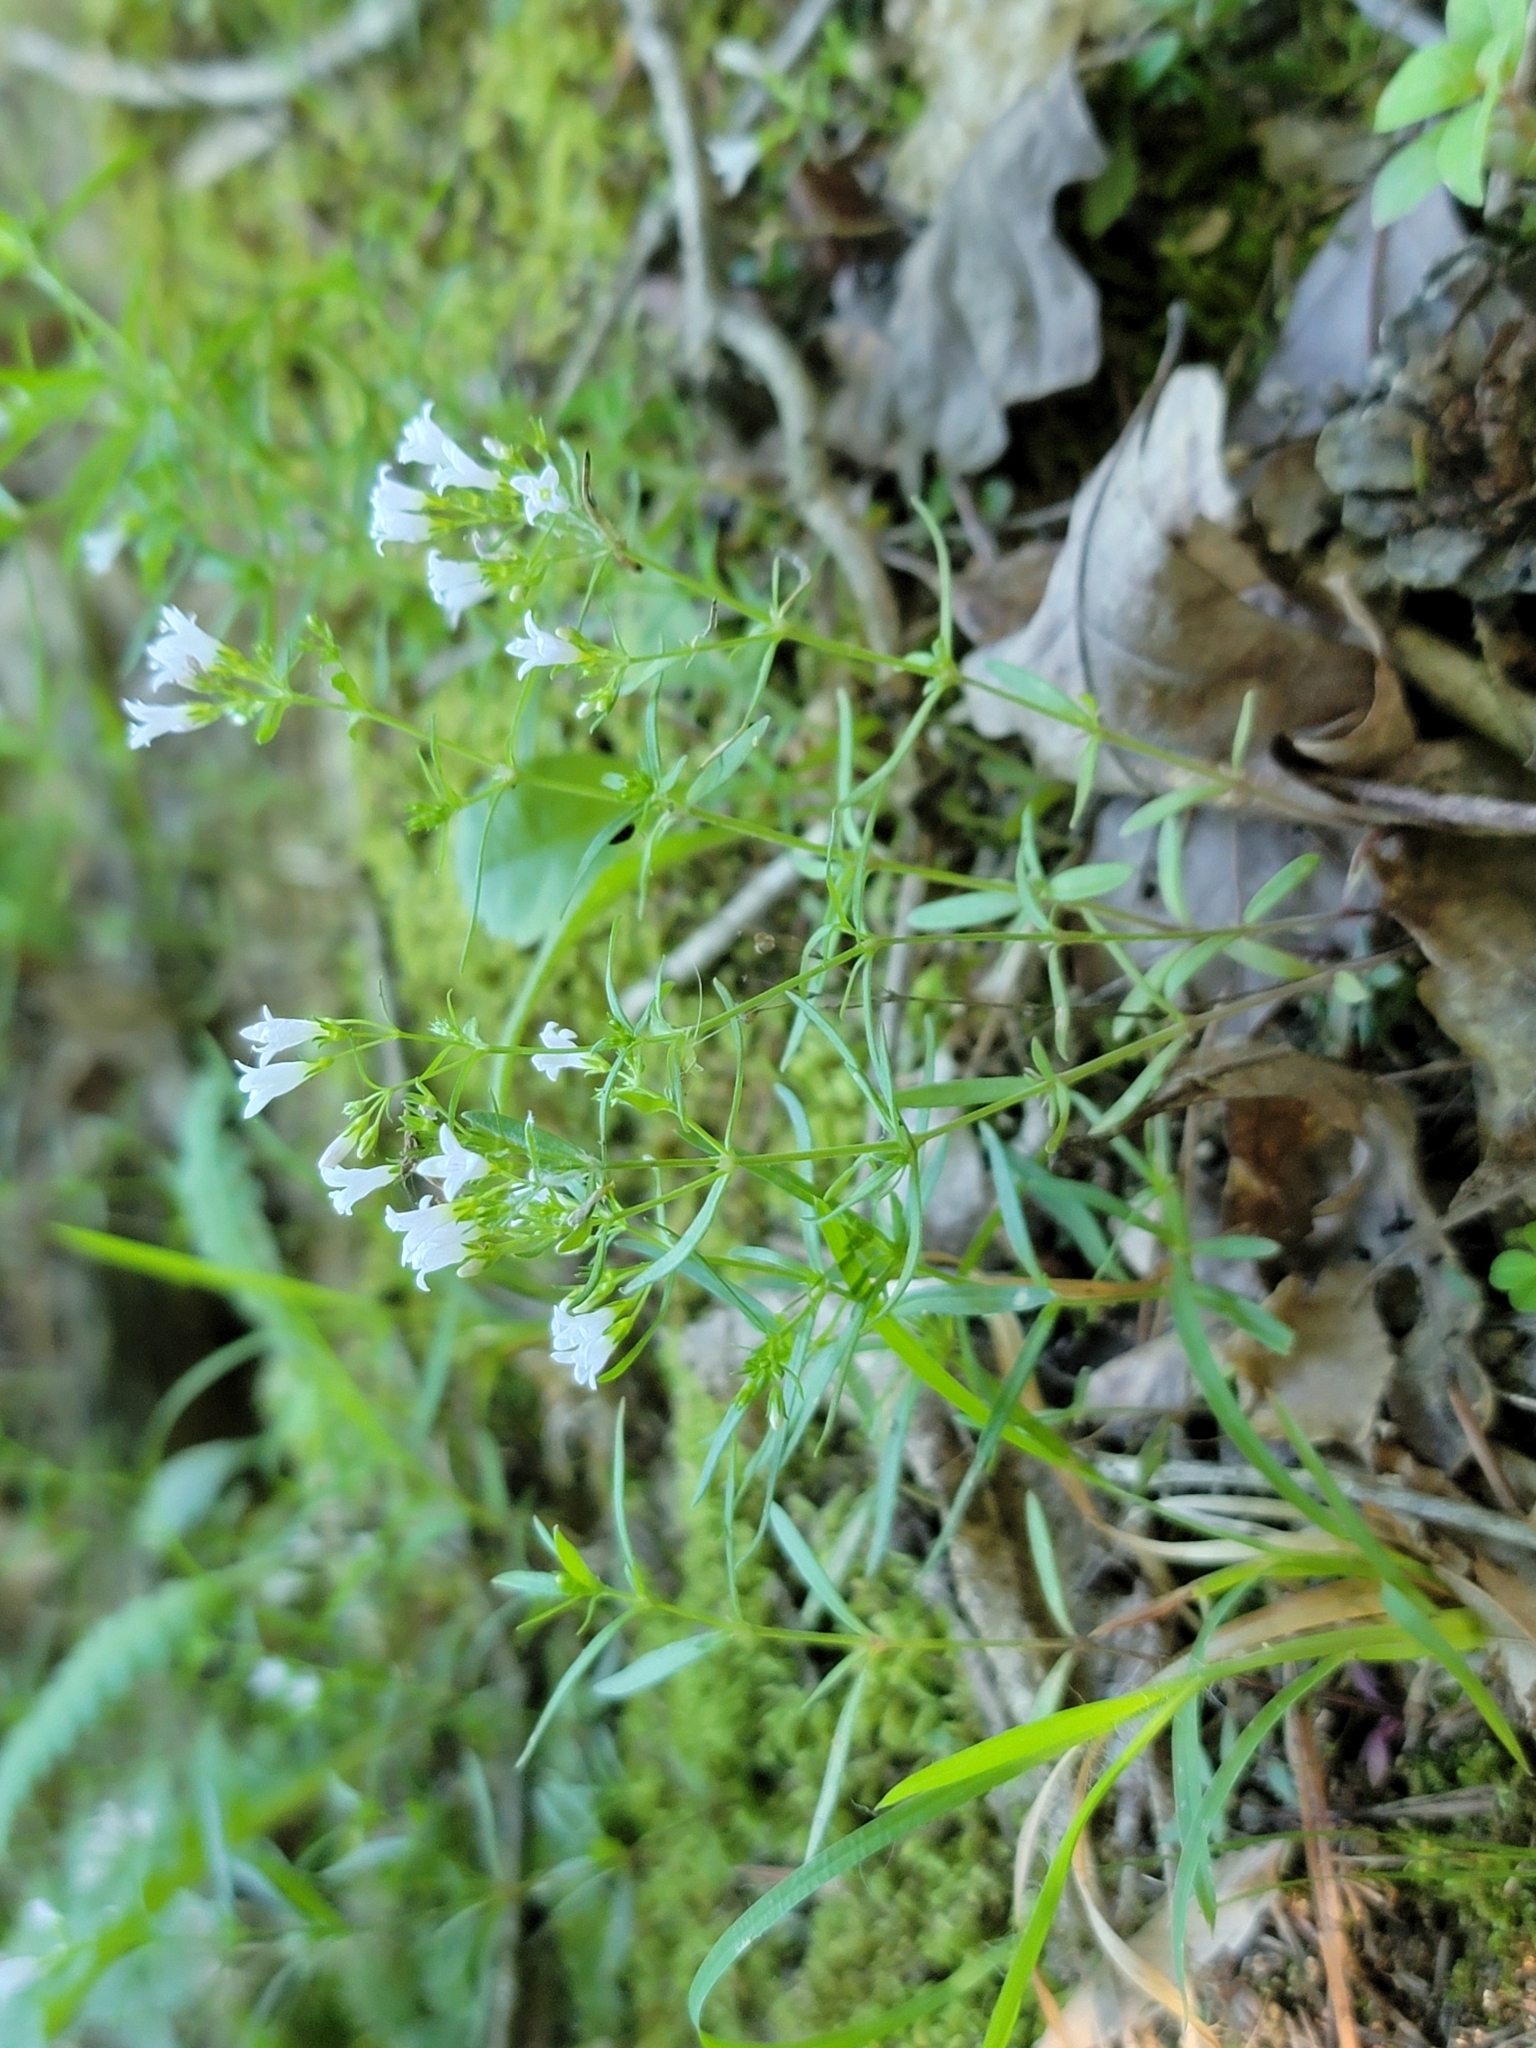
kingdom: Plantae
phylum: Tracheophyta
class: Magnoliopsida
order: Gentianales
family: Rubiaceae
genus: Houstonia
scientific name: Houstonia longifolia
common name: Long-leaved bluets
